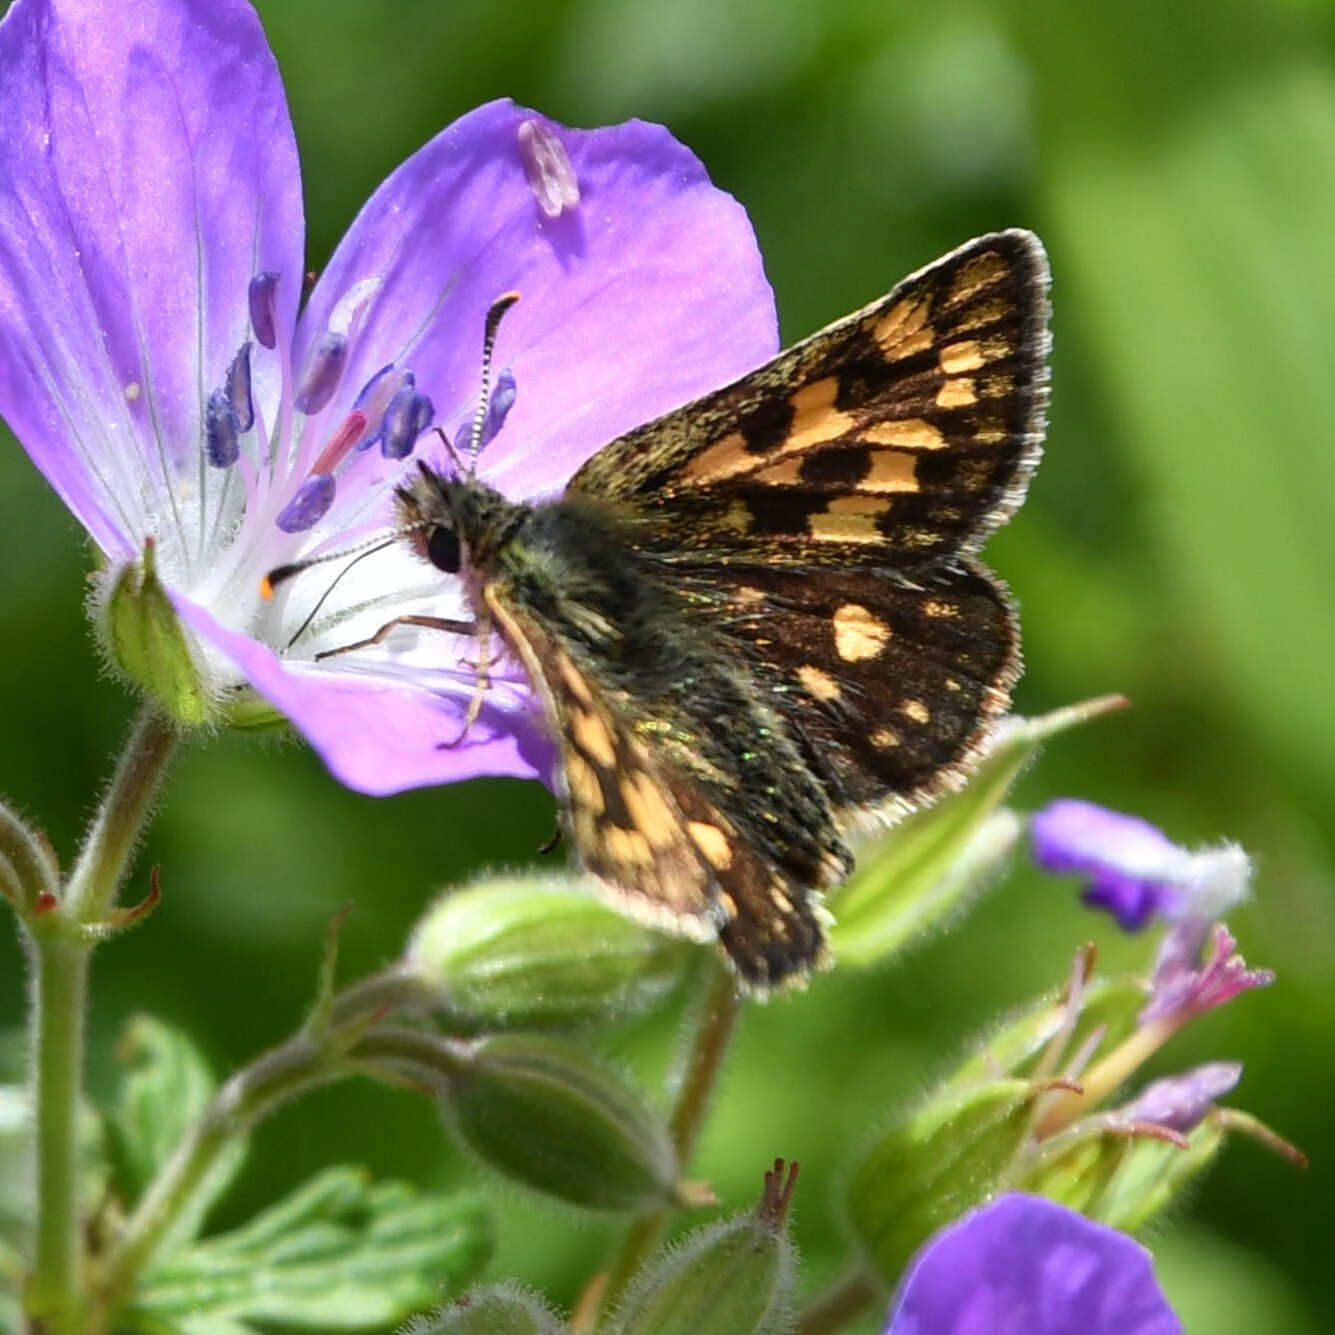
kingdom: Animalia
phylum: Arthropoda
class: Insecta
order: Lepidoptera
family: Hesperiidae
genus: Carterocephalus
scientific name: Carterocephalus palaemon
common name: Chequered skipper
